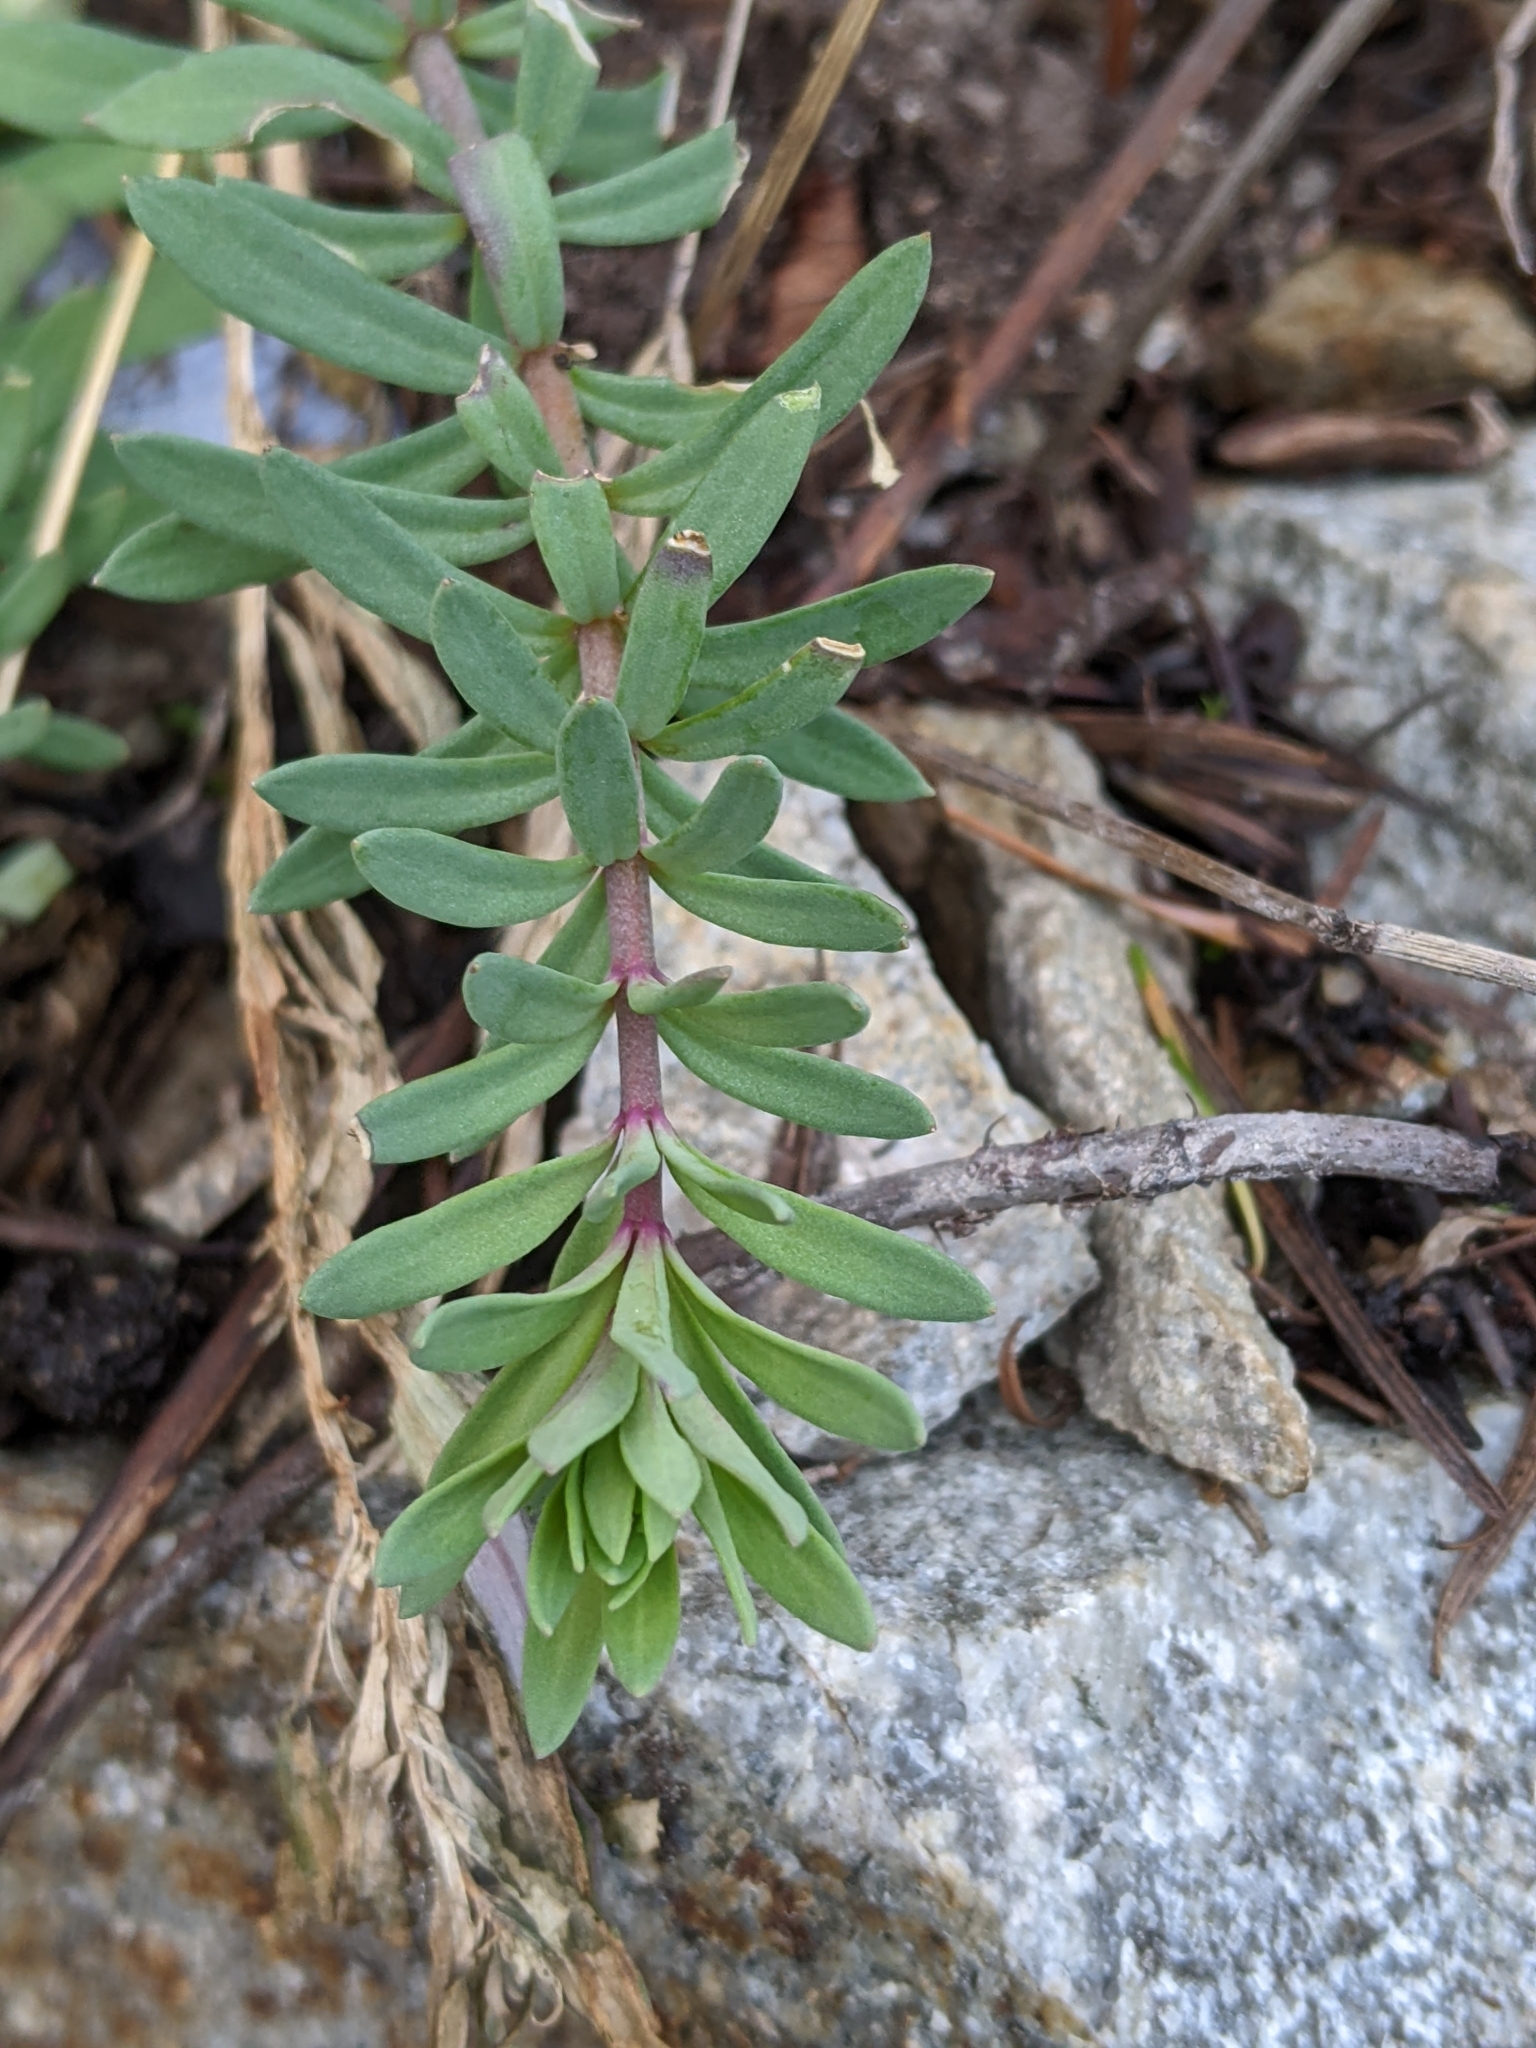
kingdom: Plantae
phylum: Tracheophyta
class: Magnoliopsida
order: Lamiales
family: Plantaginaceae
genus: Linaria
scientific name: Linaria purpurea
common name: Purple toadflax
